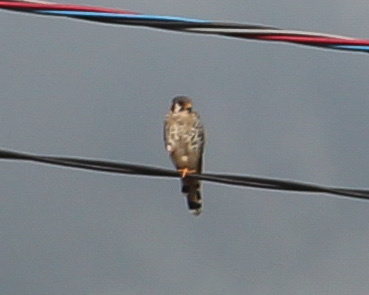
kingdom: Animalia
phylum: Chordata
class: Aves
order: Falconiformes
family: Falconidae
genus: Falco
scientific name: Falco sparverius
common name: American kestrel
